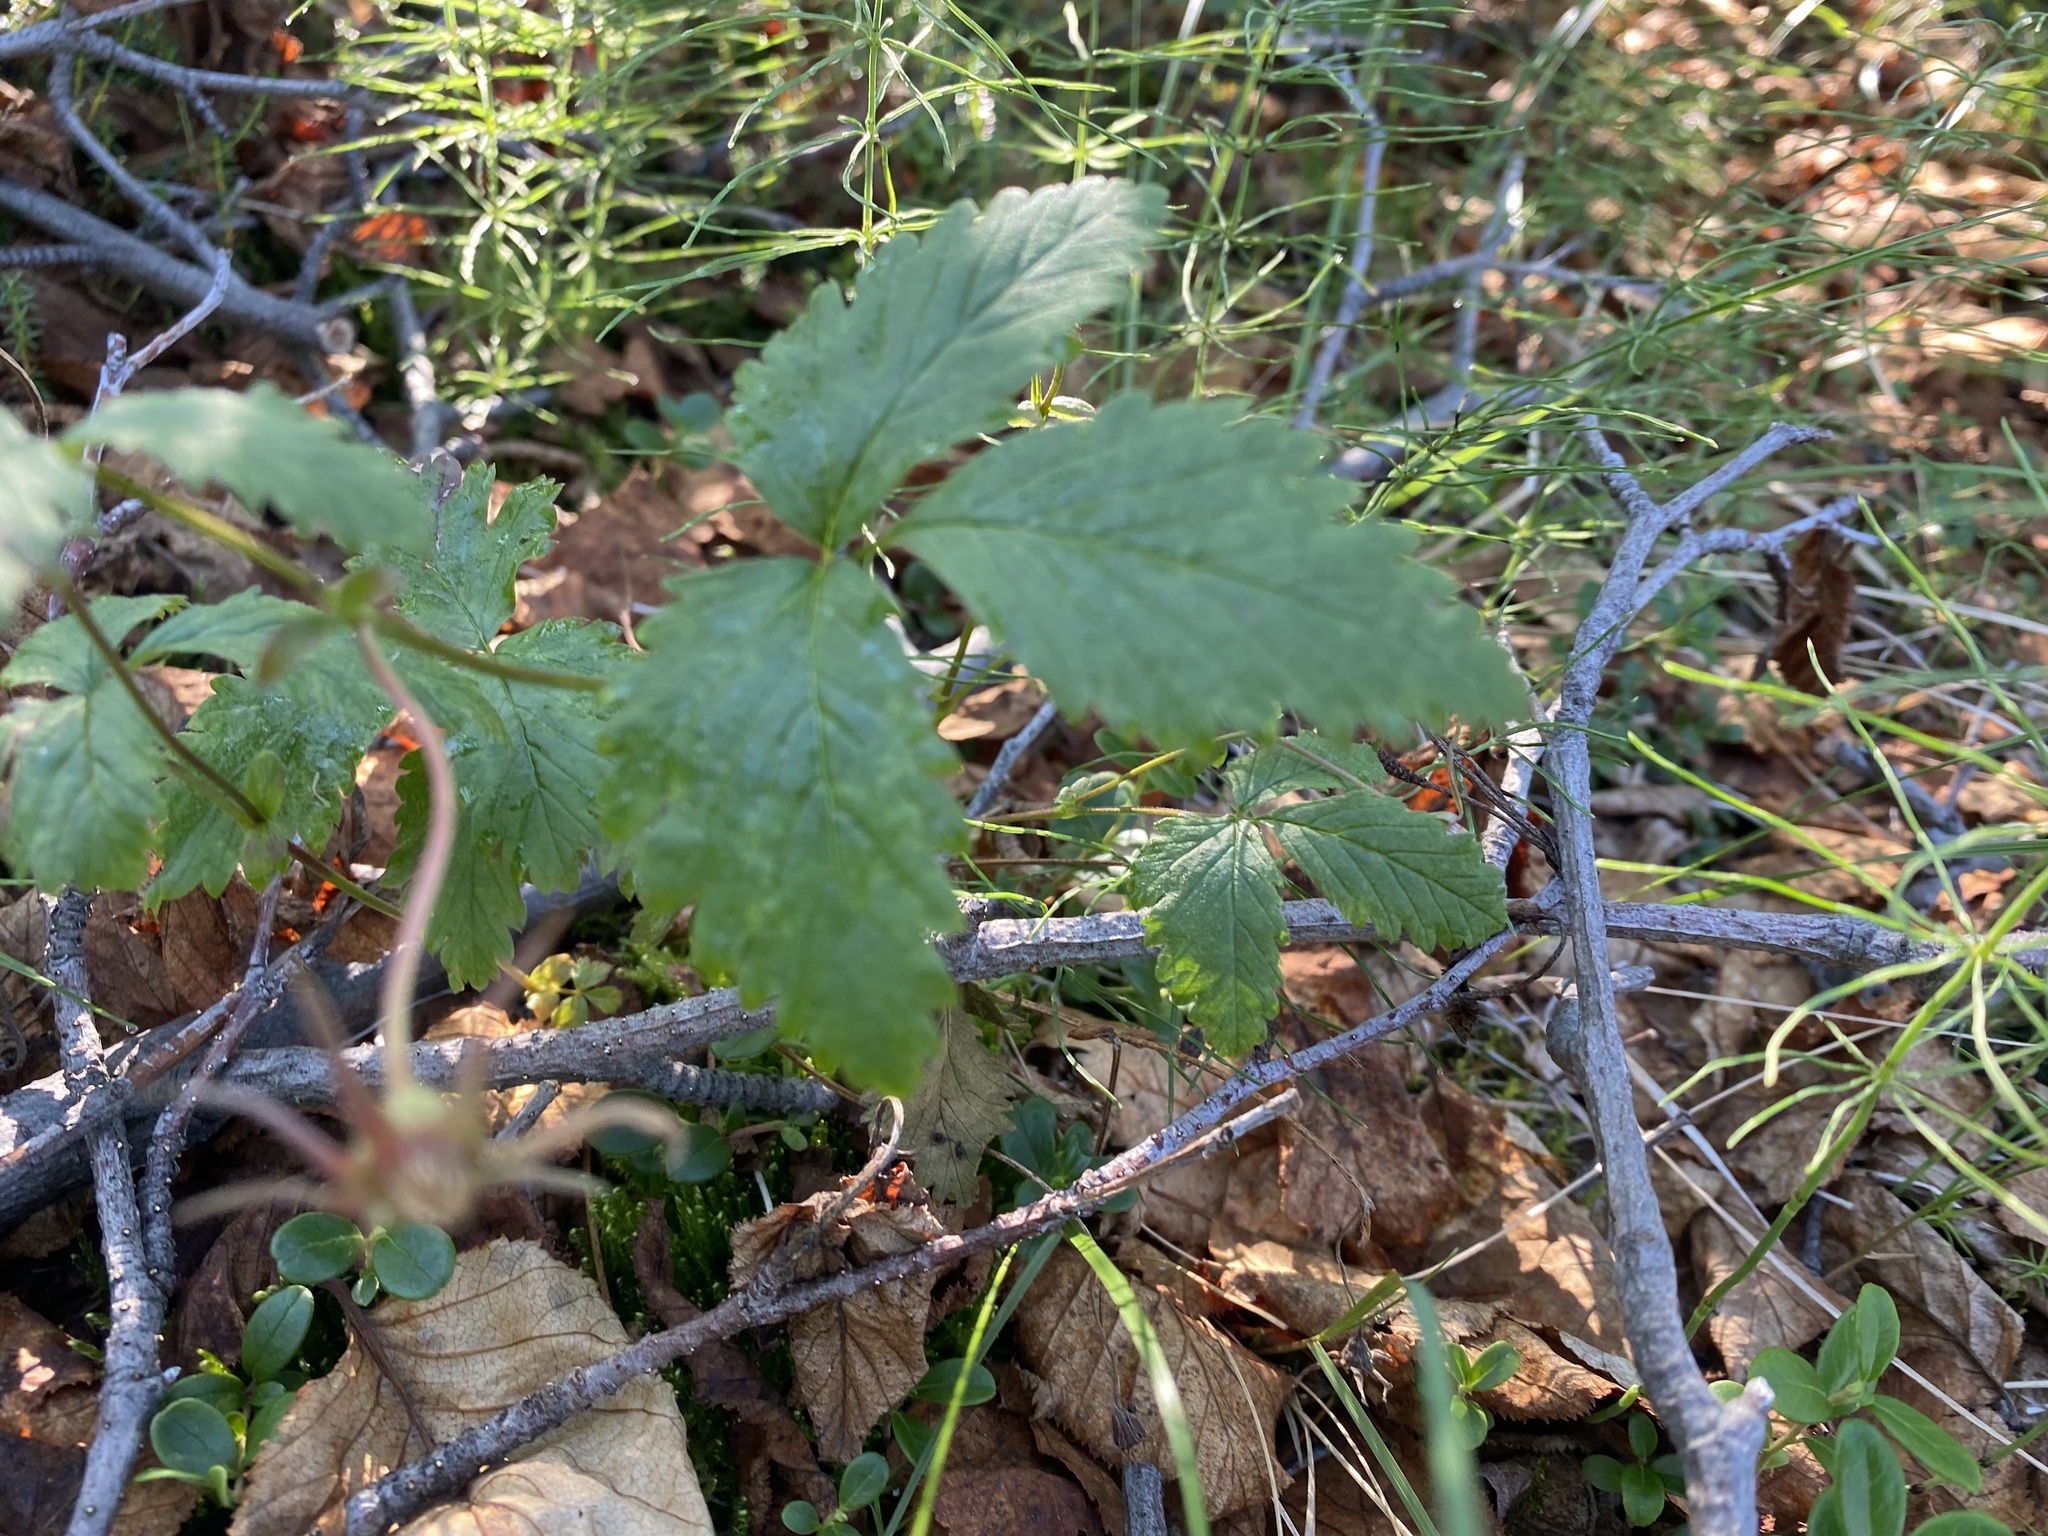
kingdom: Plantae
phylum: Tracheophyta
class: Magnoliopsida
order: Rosales
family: Rosaceae
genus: Rubus
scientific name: Rubus arcticus
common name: Arctic bramble
